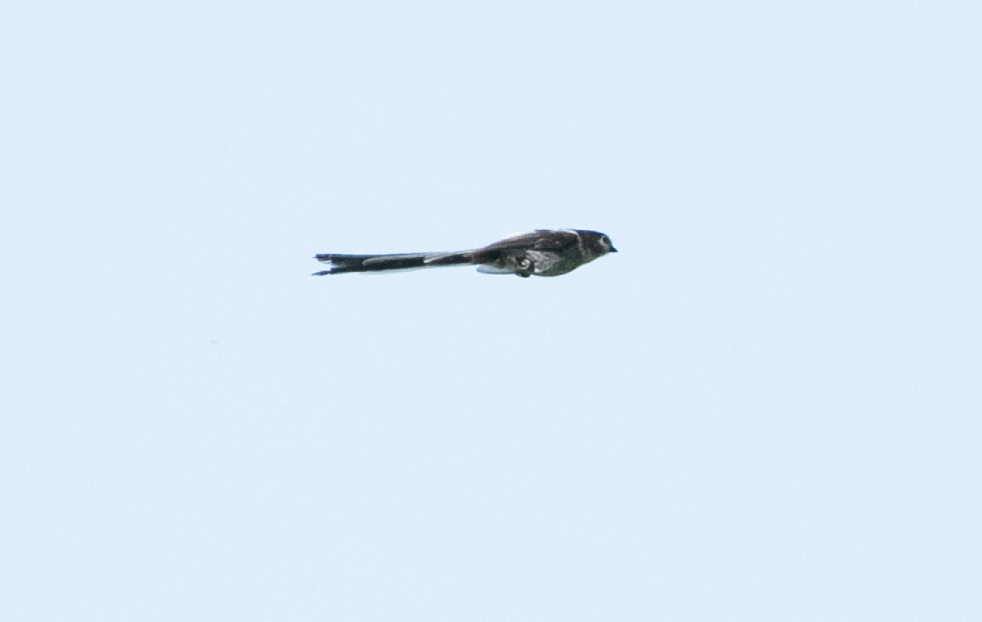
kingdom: Animalia
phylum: Chordata
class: Aves
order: Passeriformes
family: Aegithalidae
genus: Aegithalos
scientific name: Aegithalos caudatus
